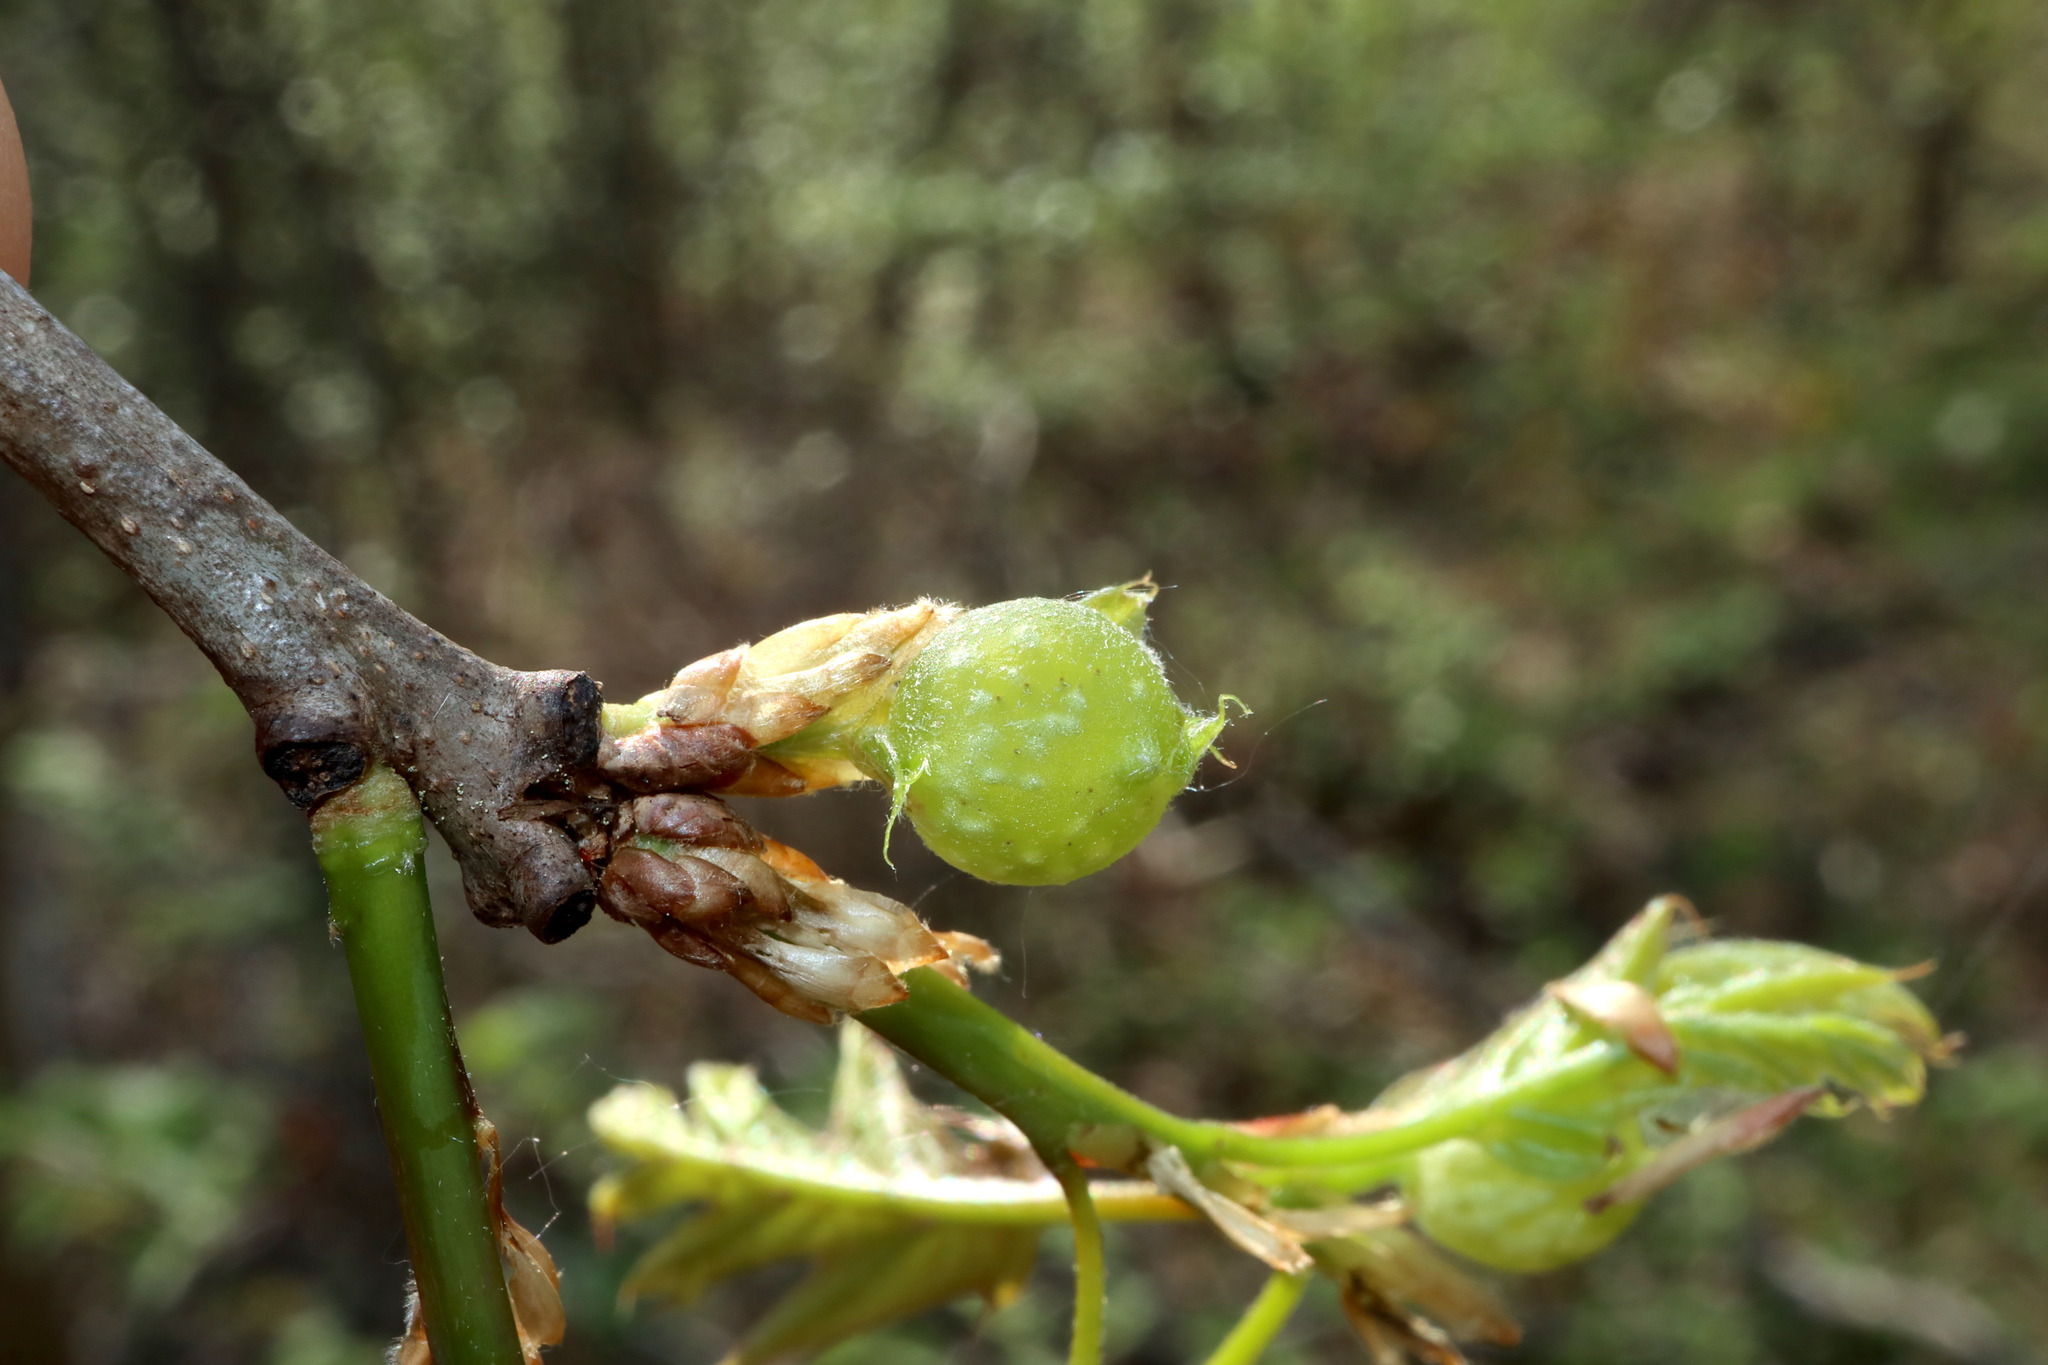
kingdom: Animalia
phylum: Arthropoda
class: Insecta
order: Hymenoptera
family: Cynipidae
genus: Dryocosmus
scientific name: Dryocosmus quercuspalustris
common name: Succulent oak gall wasp
